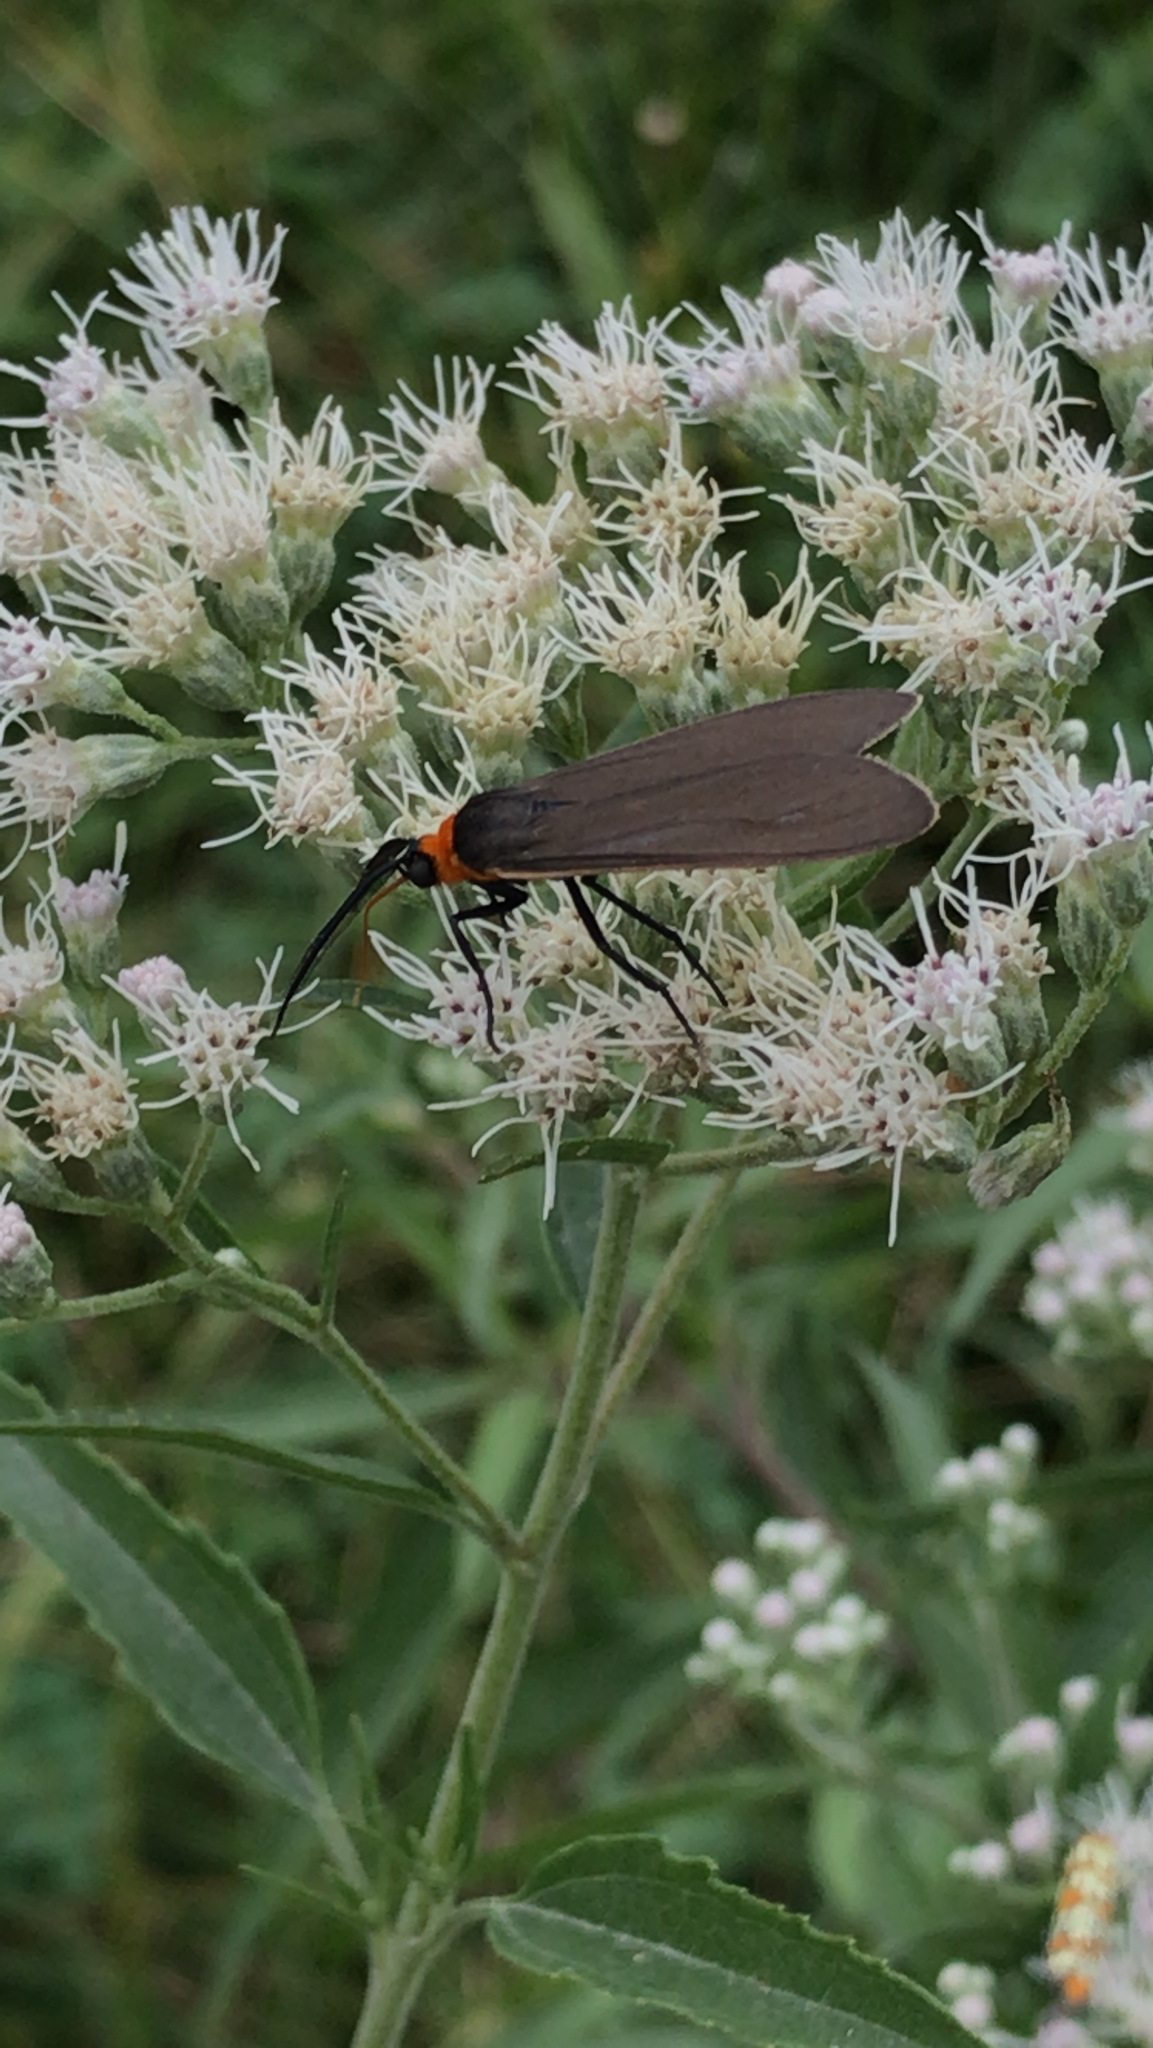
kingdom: Animalia
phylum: Arthropoda
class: Insecta
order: Lepidoptera
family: Erebidae
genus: Cisseps
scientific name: Cisseps fulvicollis
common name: Yellow-collared scape moth
